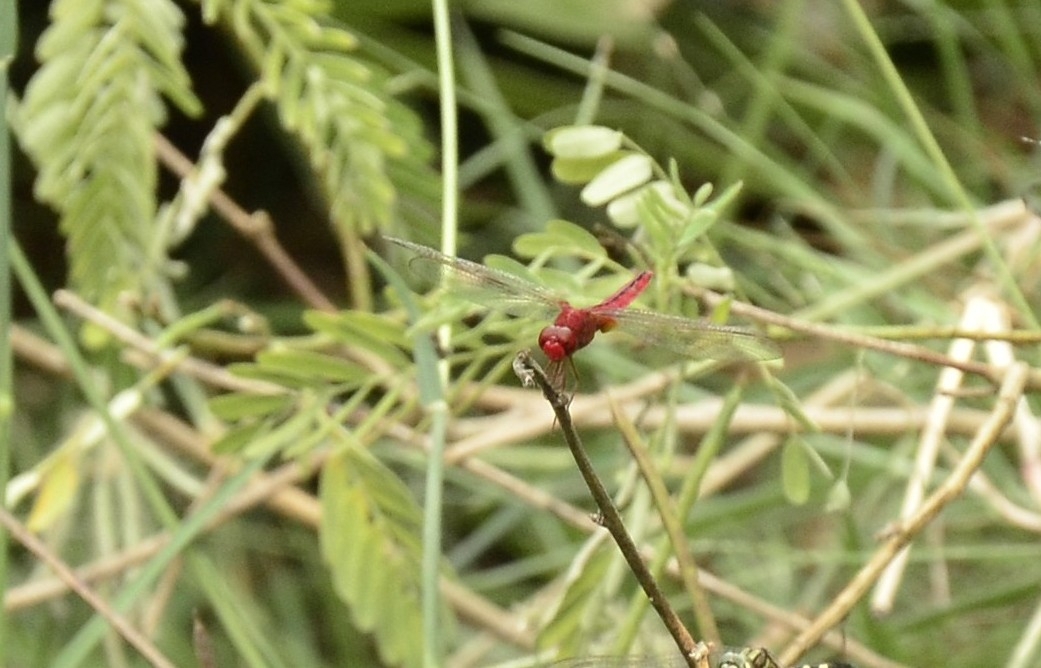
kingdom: Animalia
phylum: Arthropoda
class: Insecta
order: Odonata
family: Libellulidae
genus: Crocothemis
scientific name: Crocothemis servilia
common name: Scarlet skimmer
